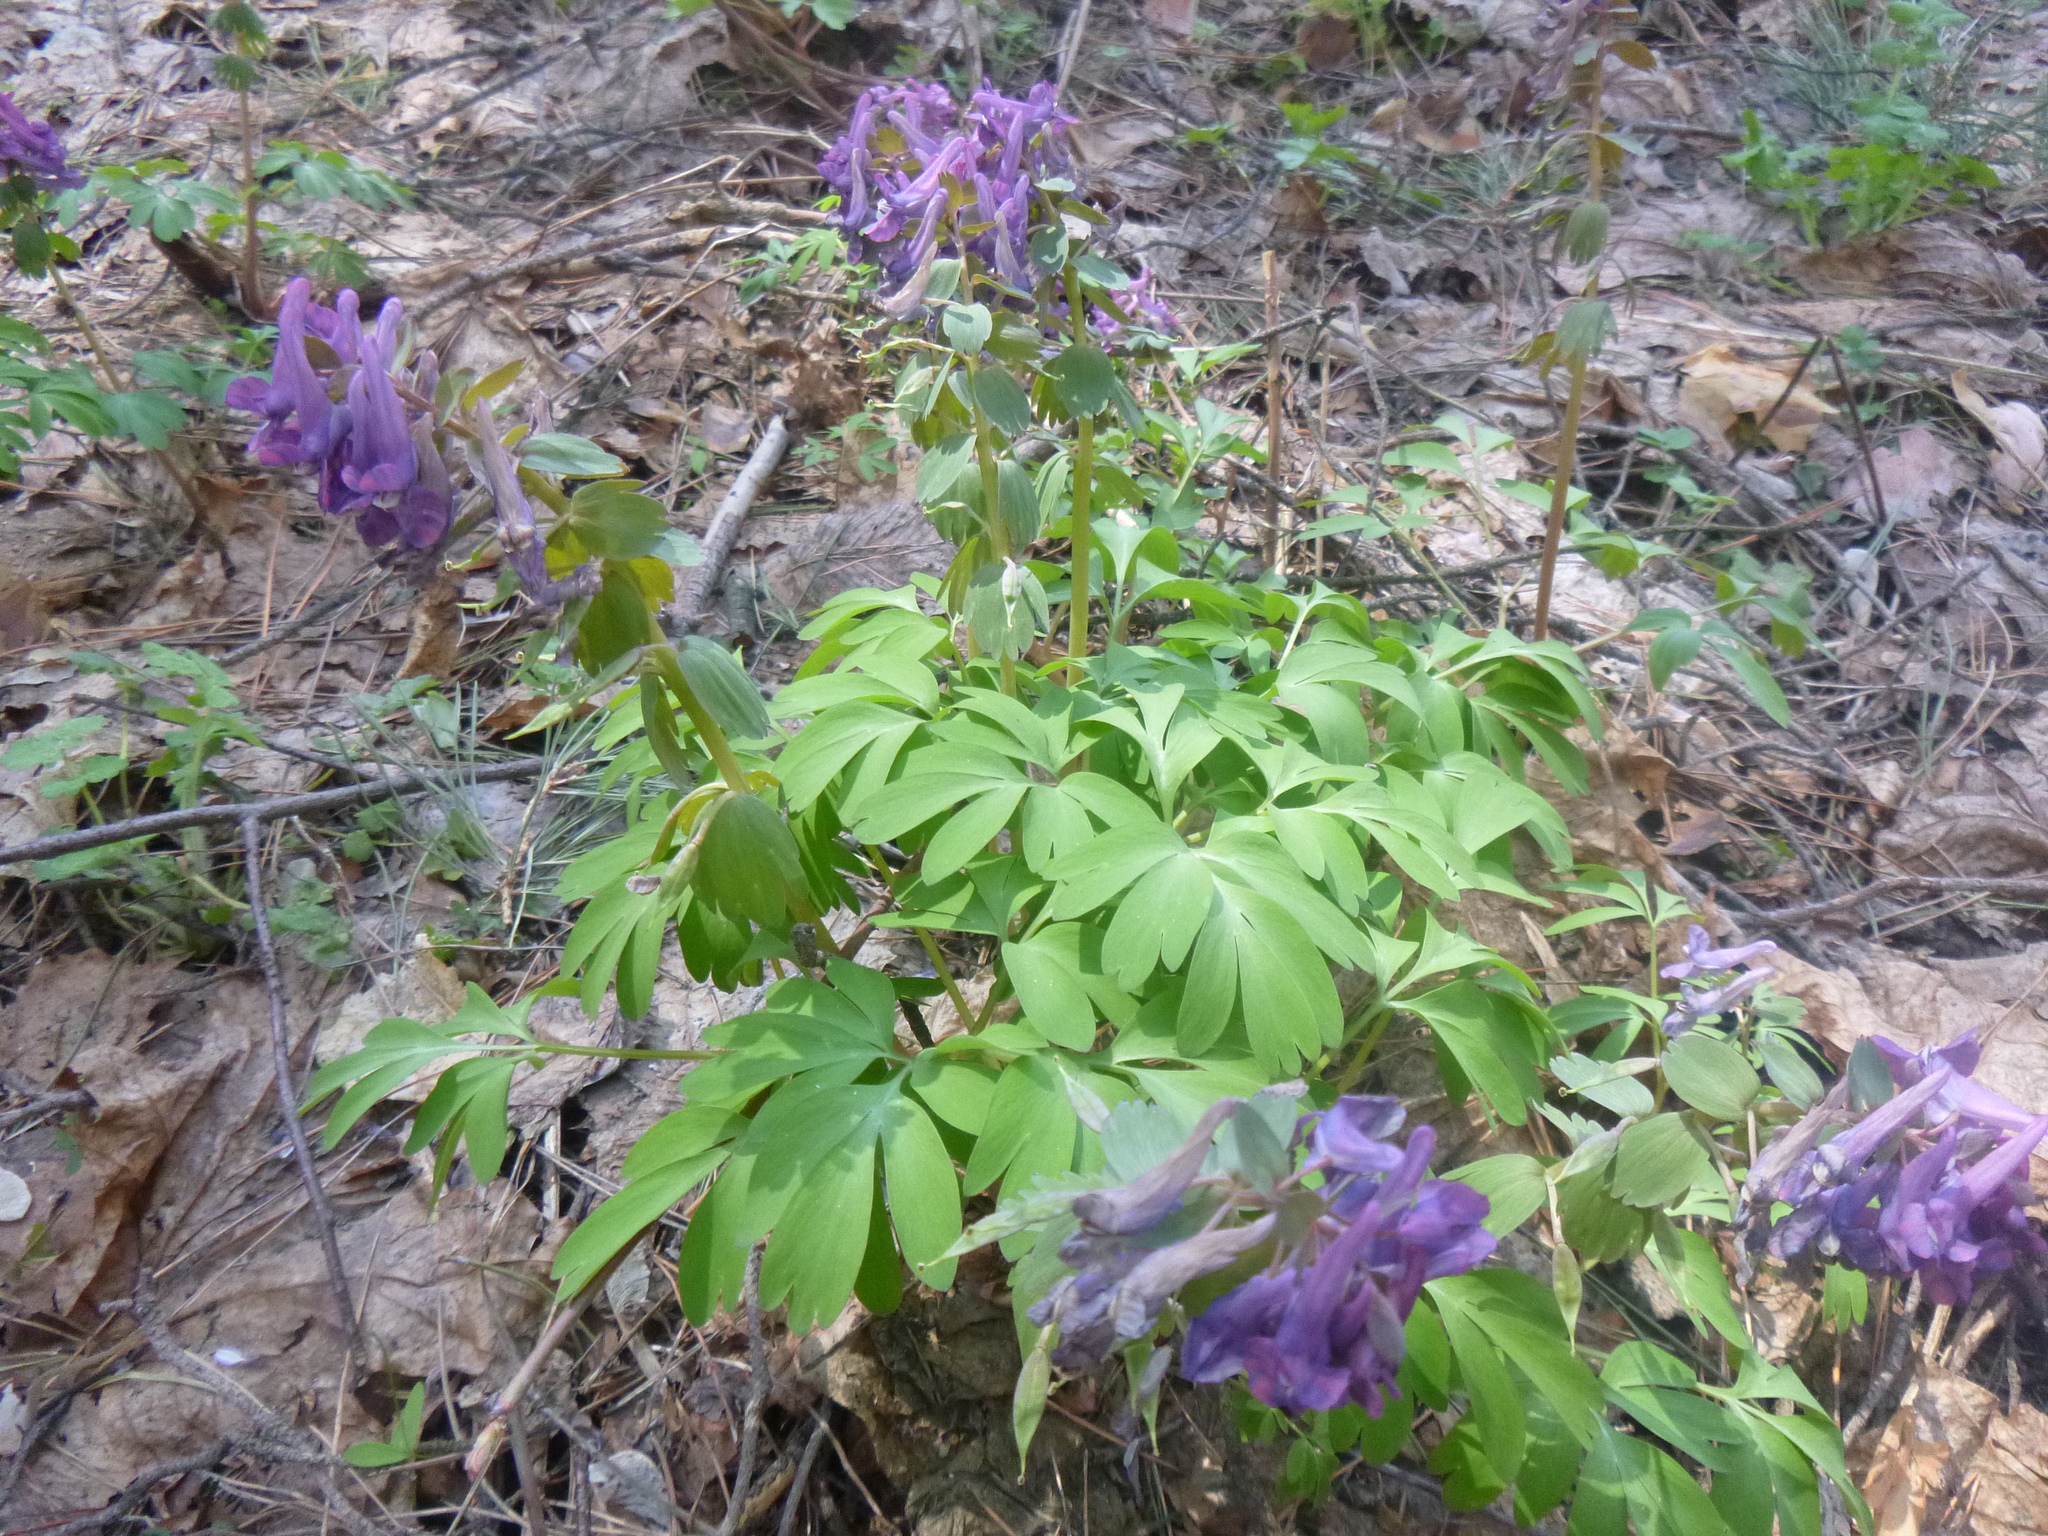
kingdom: Plantae
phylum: Tracheophyta
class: Magnoliopsida
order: Ranunculales
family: Papaveraceae
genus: Corydalis
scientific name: Corydalis solida
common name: Bird-in-a-bush
